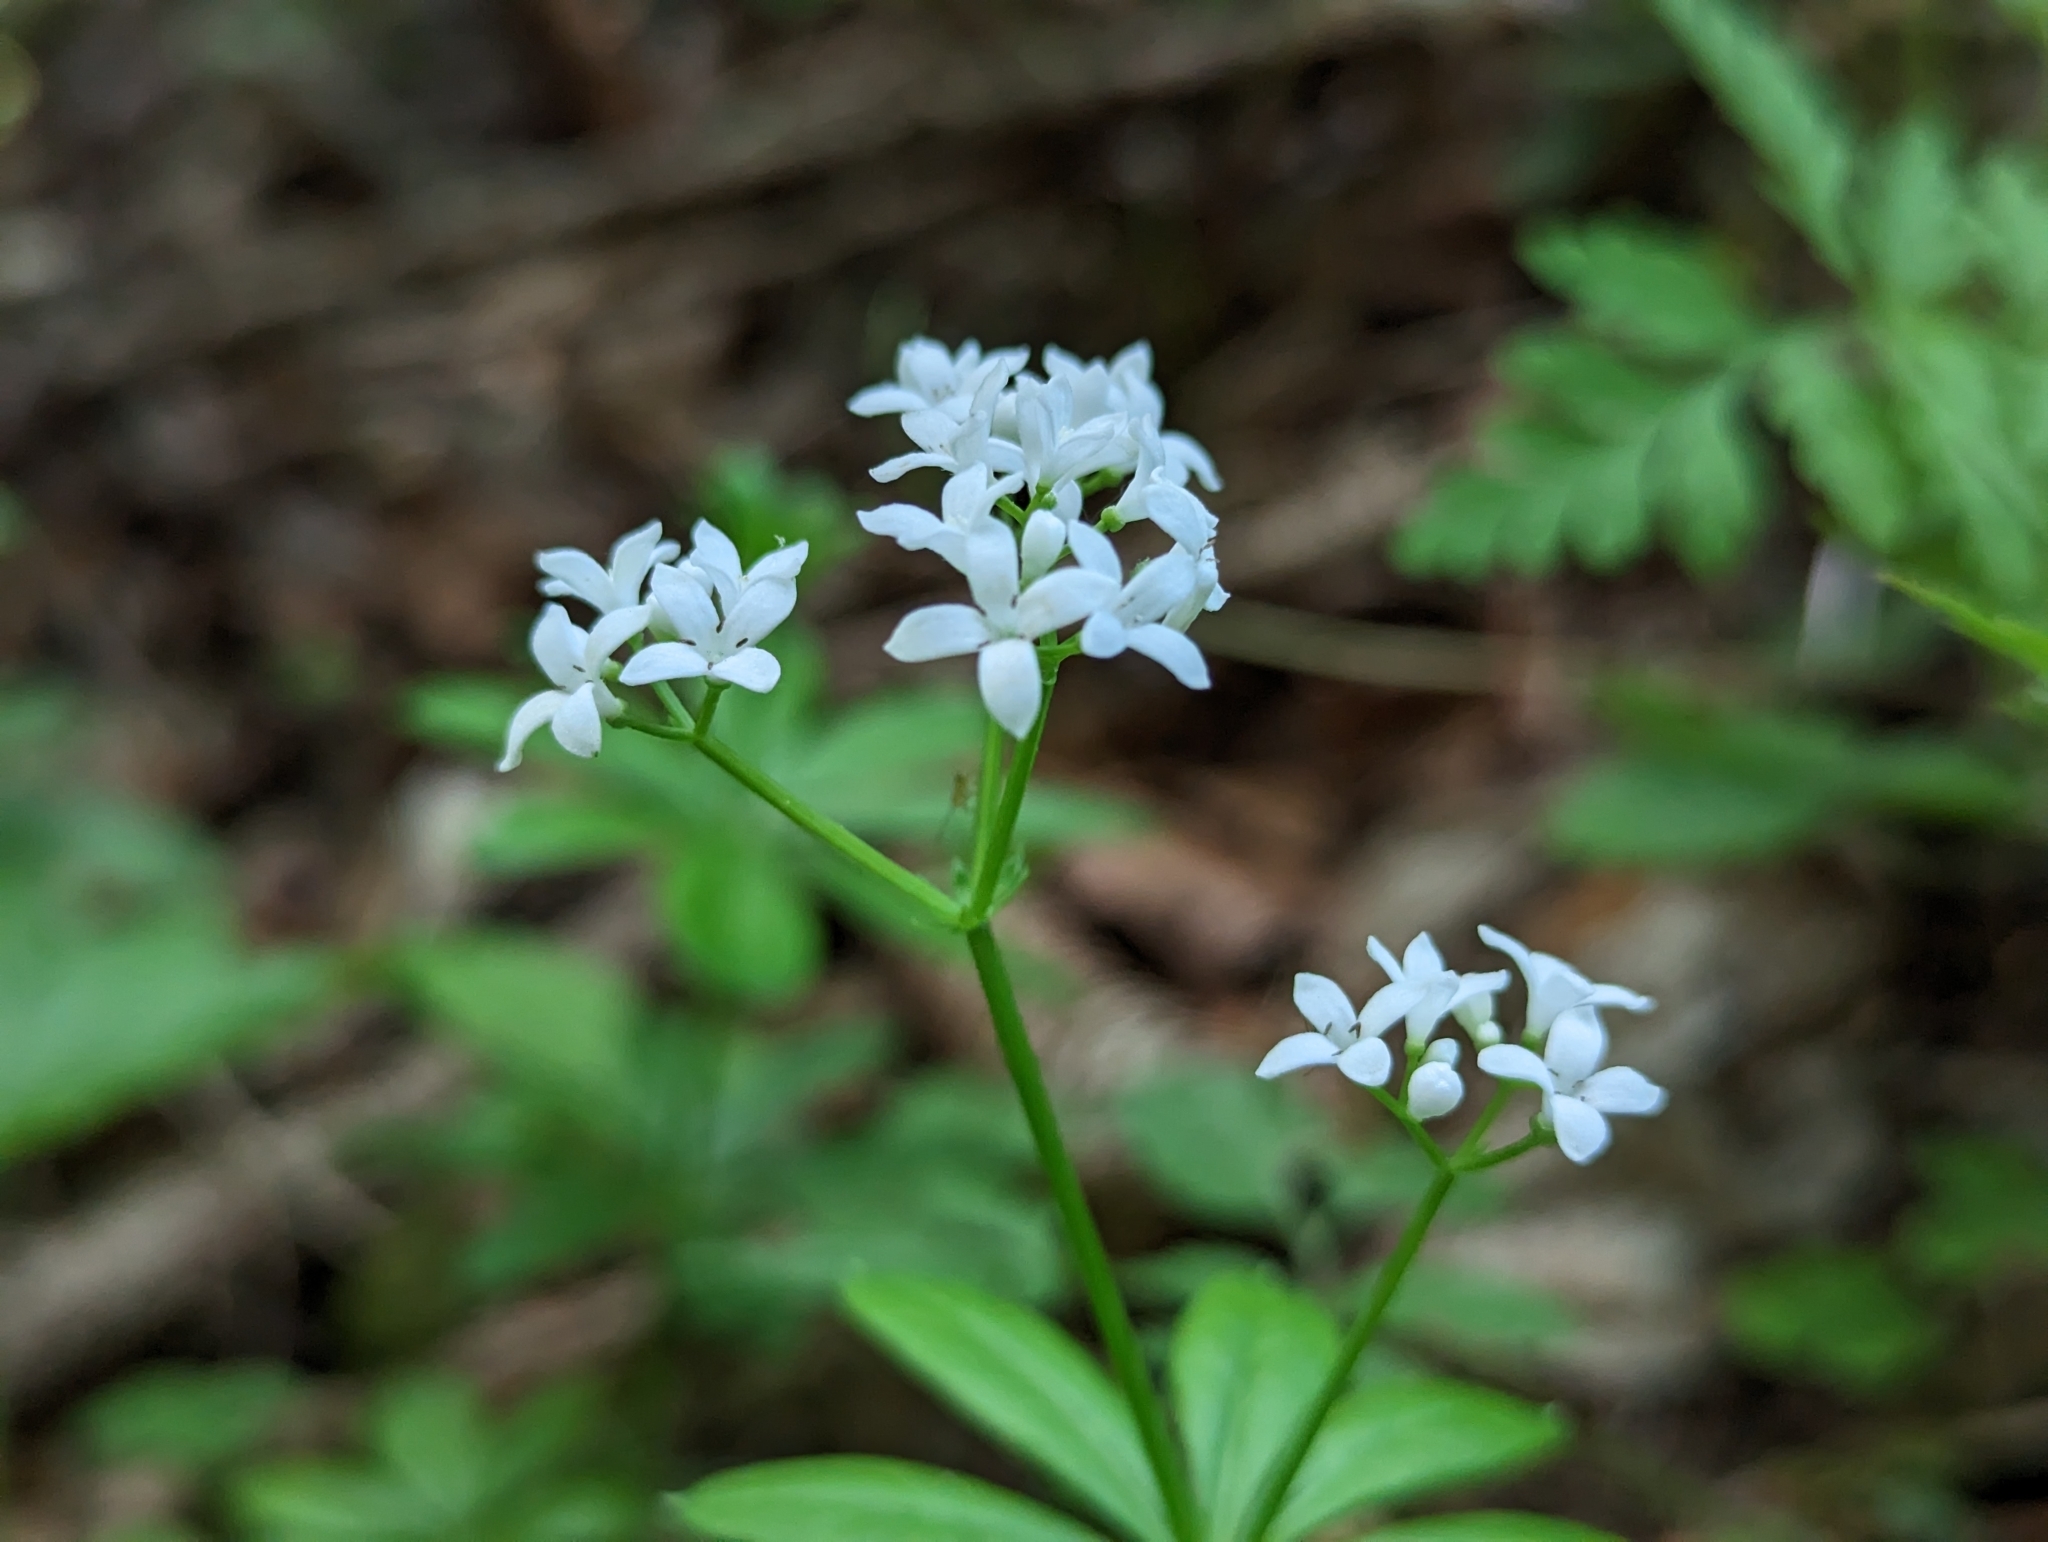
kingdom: Plantae
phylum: Tracheophyta
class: Magnoliopsida
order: Gentianales
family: Rubiaceae
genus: Galium
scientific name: Galium odoratum
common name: Sweet woodruff
